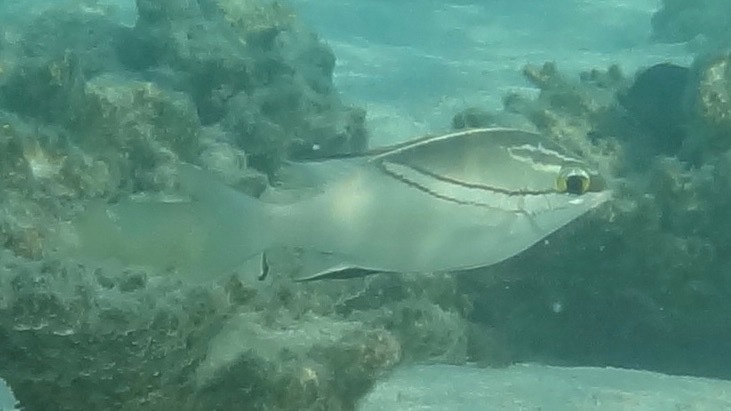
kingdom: Animalia
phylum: Chordata
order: Perciformes
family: Nemipteridae
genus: Scolopsis
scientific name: Scolopsis bilineata
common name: Two-lined monocle bream
